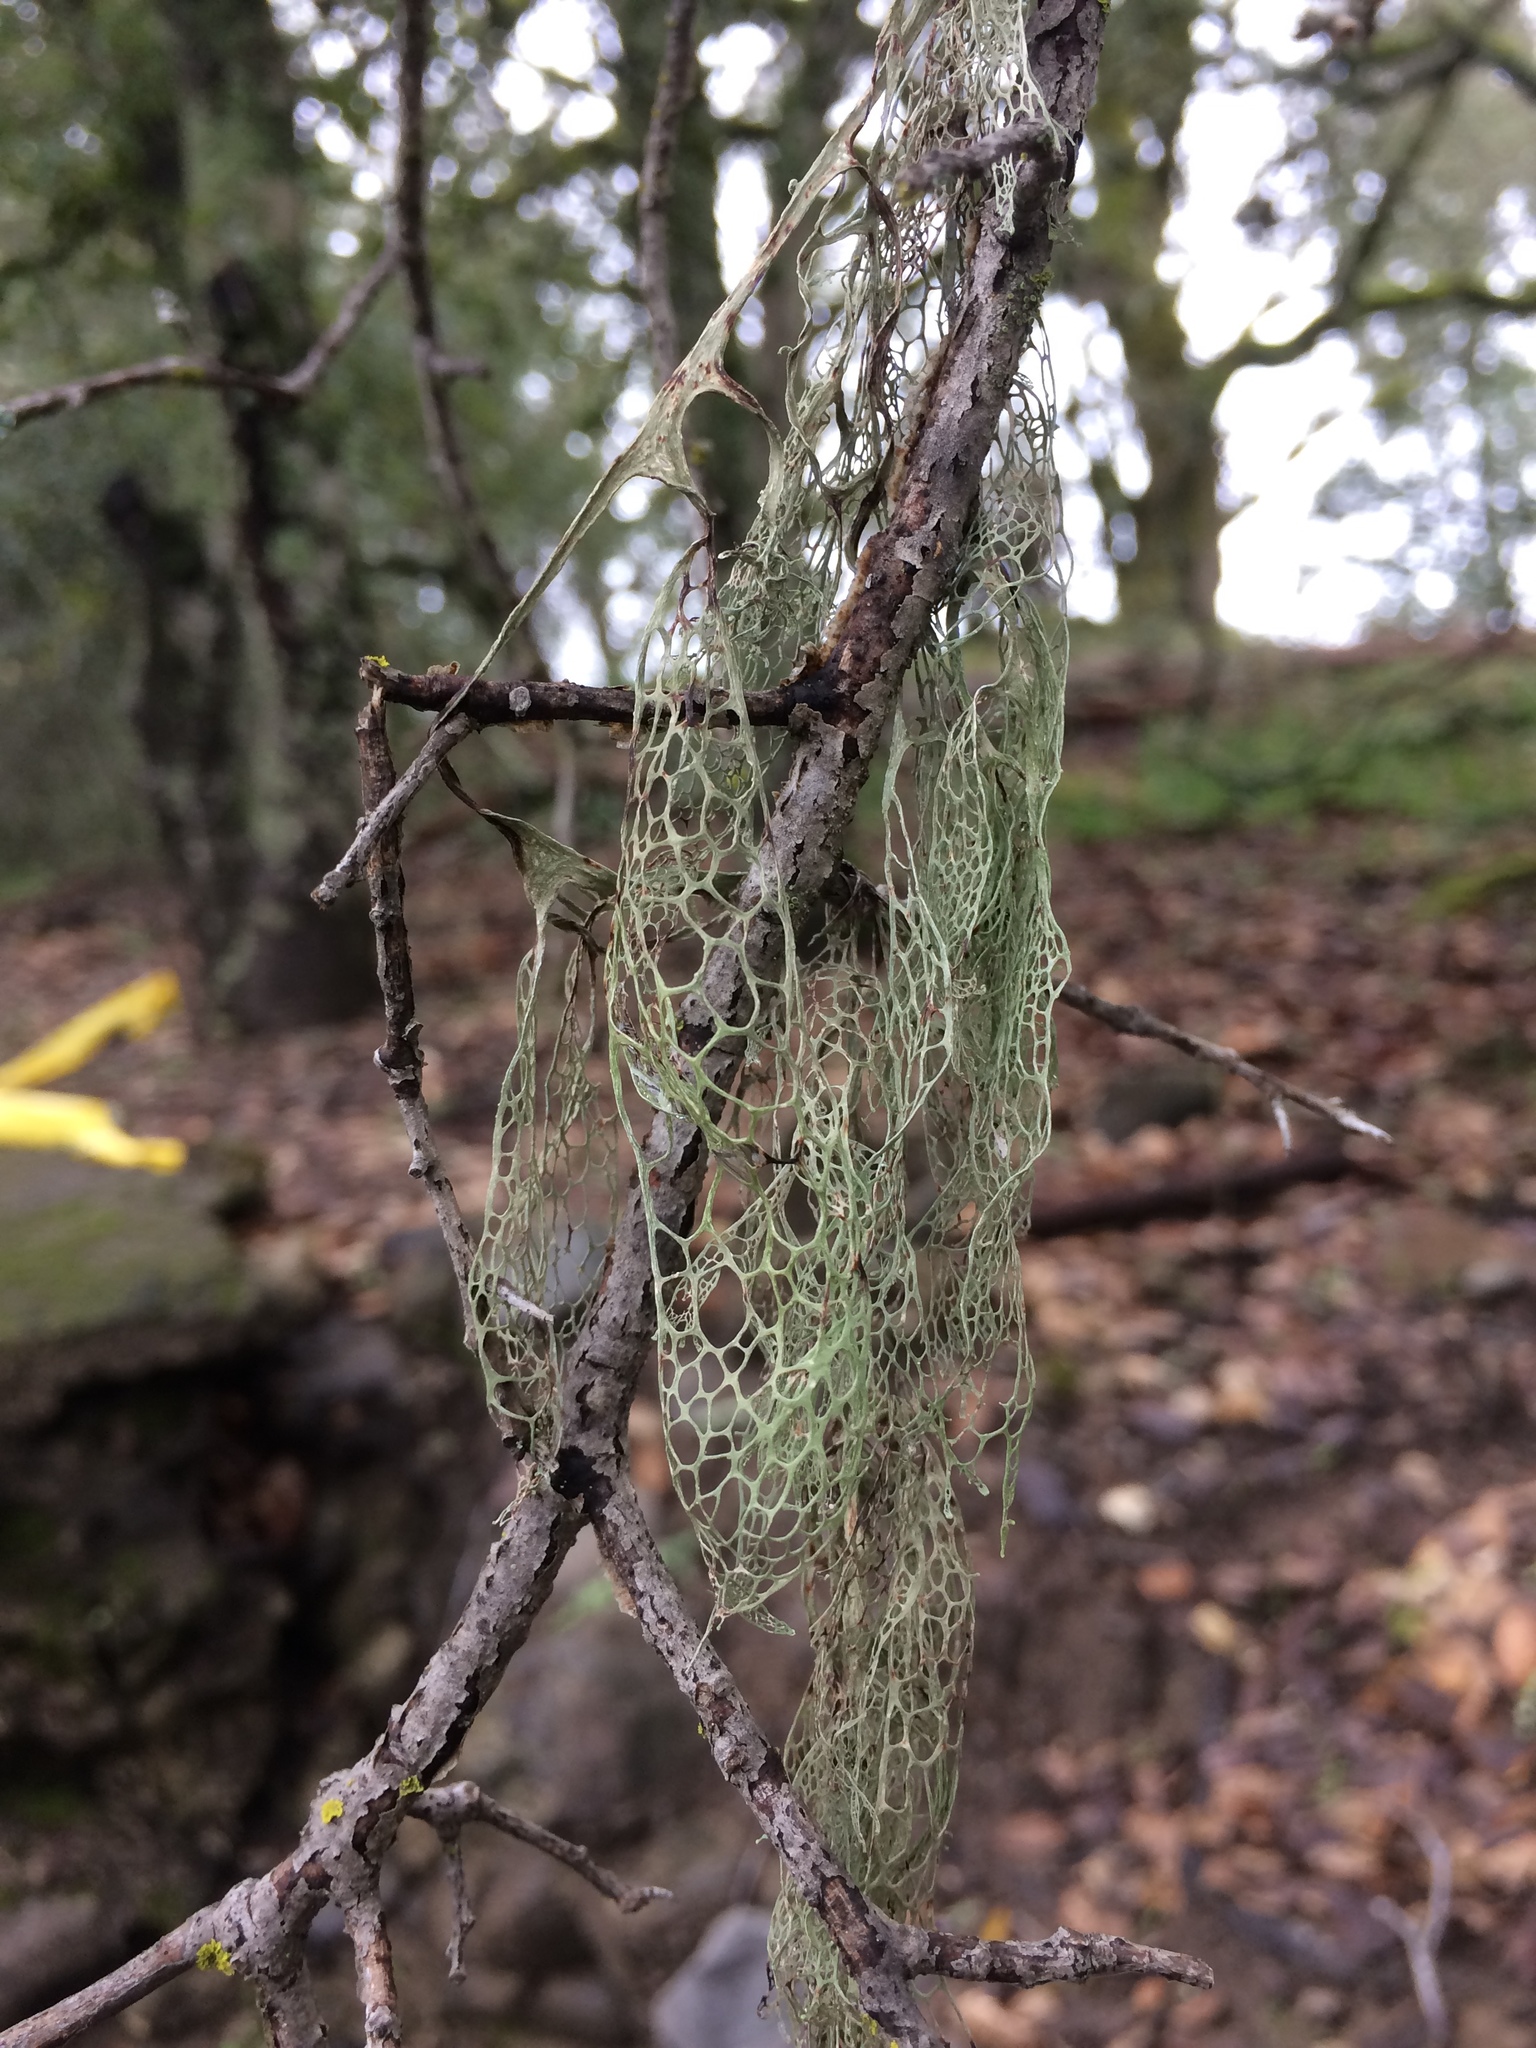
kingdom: Fungi
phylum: Ascomycota
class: Lecanoromycetes
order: Lecanorales
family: Ramalinaceae
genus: Ramalina
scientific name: Ramalina menziesii
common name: Lace lichen
